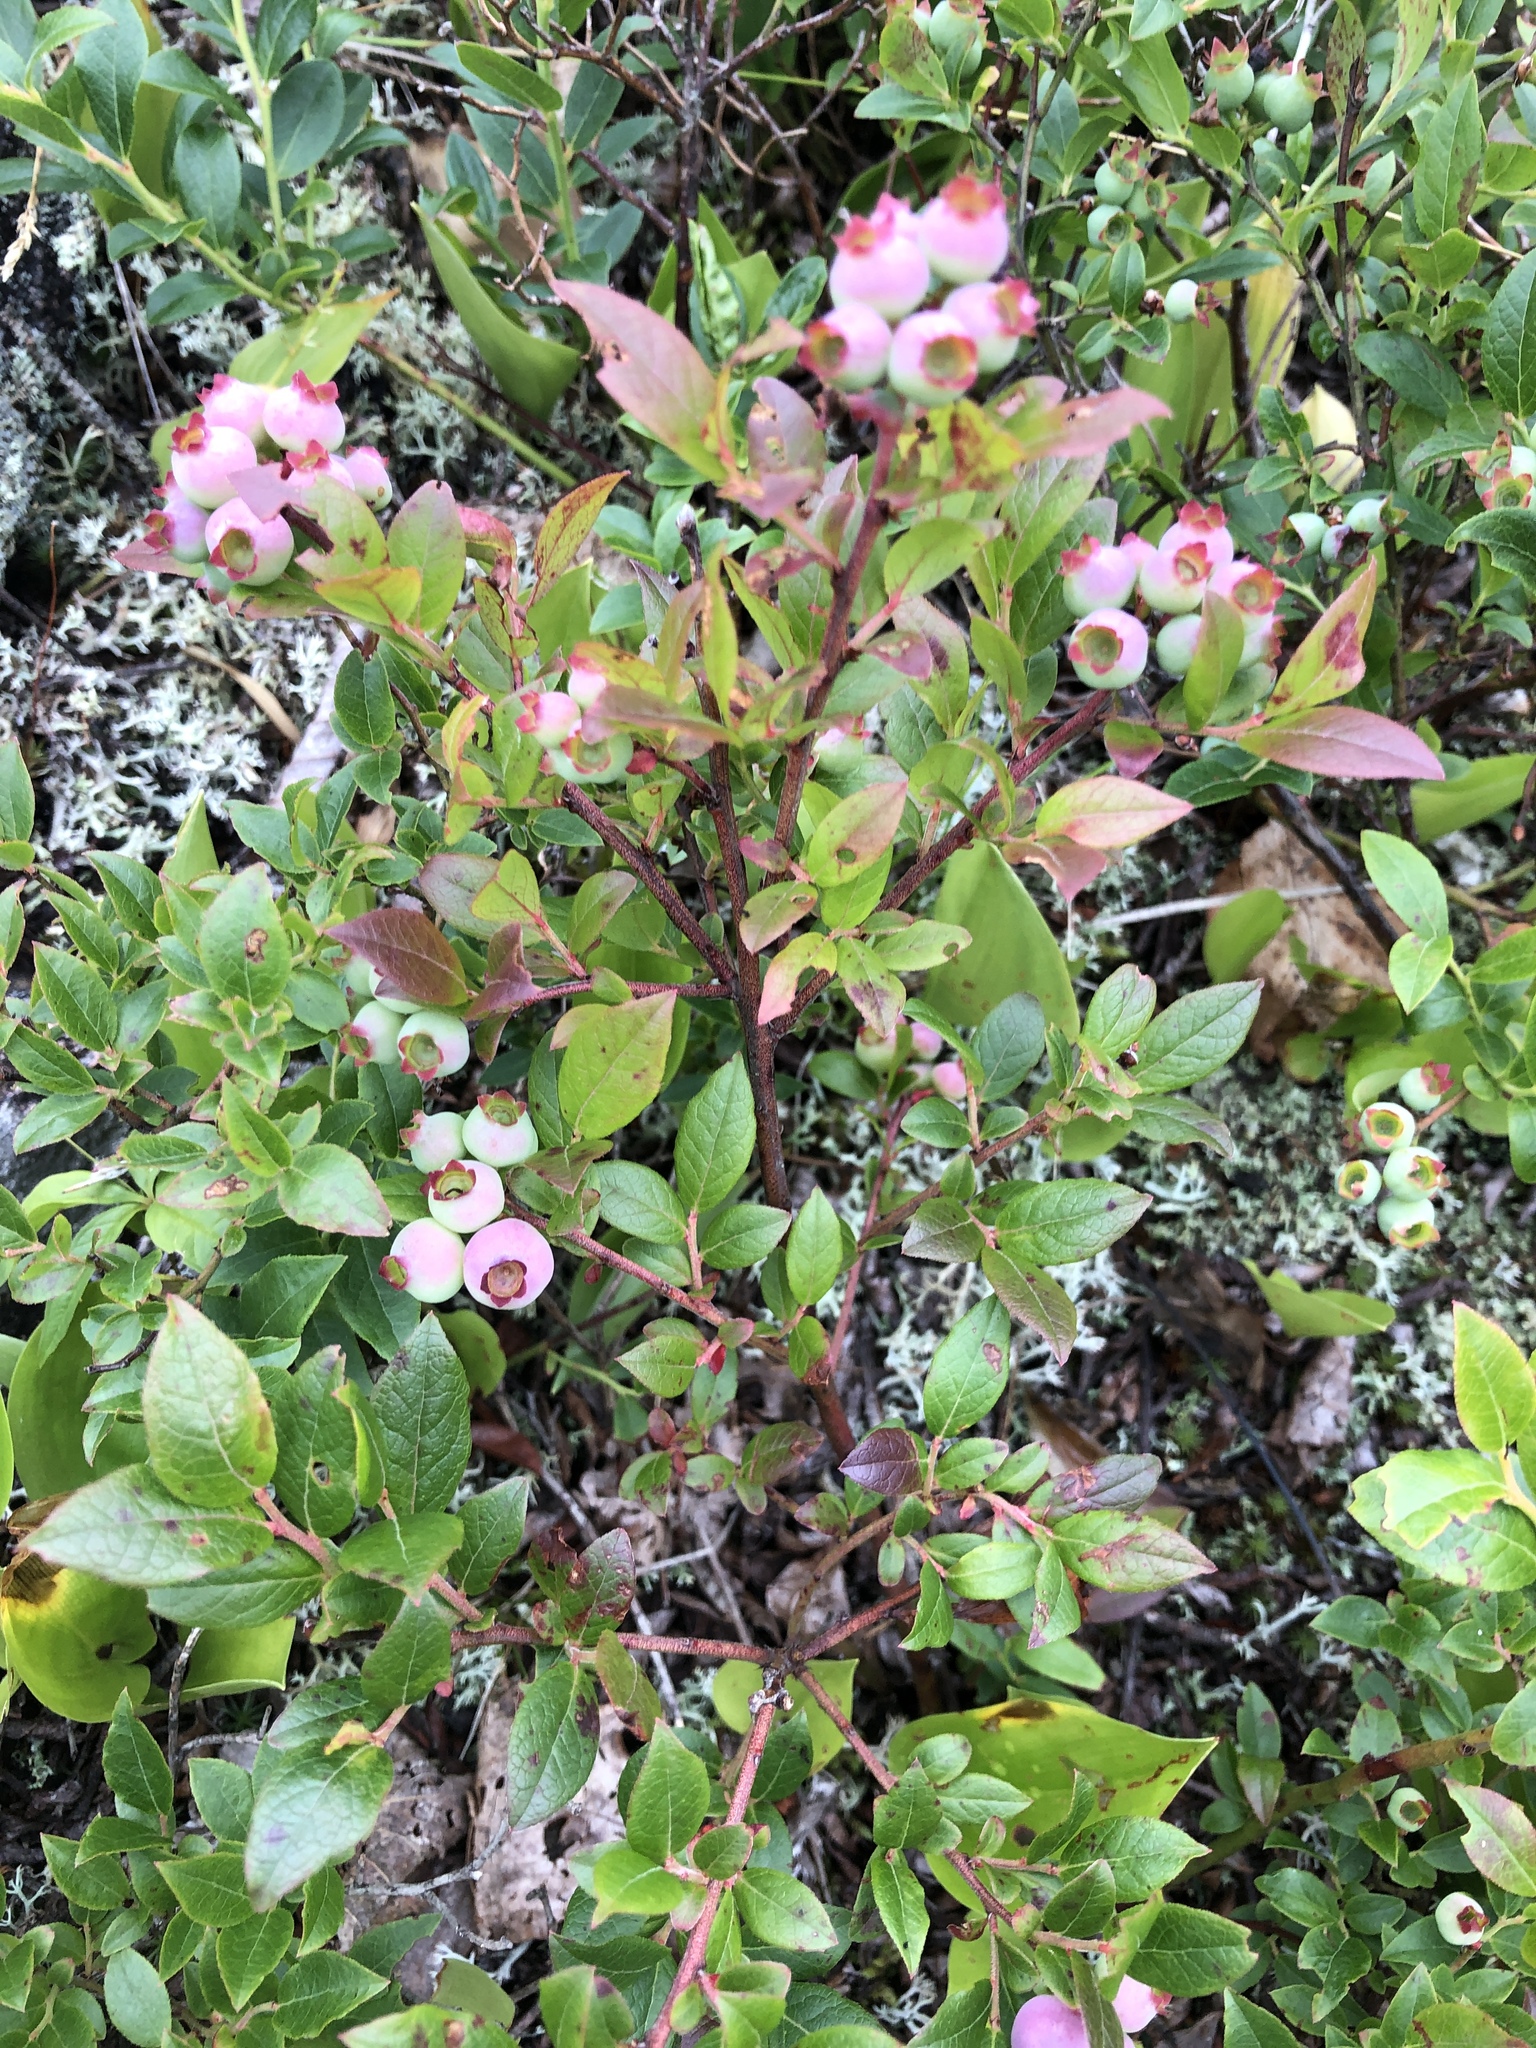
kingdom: Plantae
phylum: Tracheophyta
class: Magnoliopsida
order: Ericales
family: Ericaceae
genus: Vaccinium
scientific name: Vaccinium angustifolium
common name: Early lowbush blueberry
